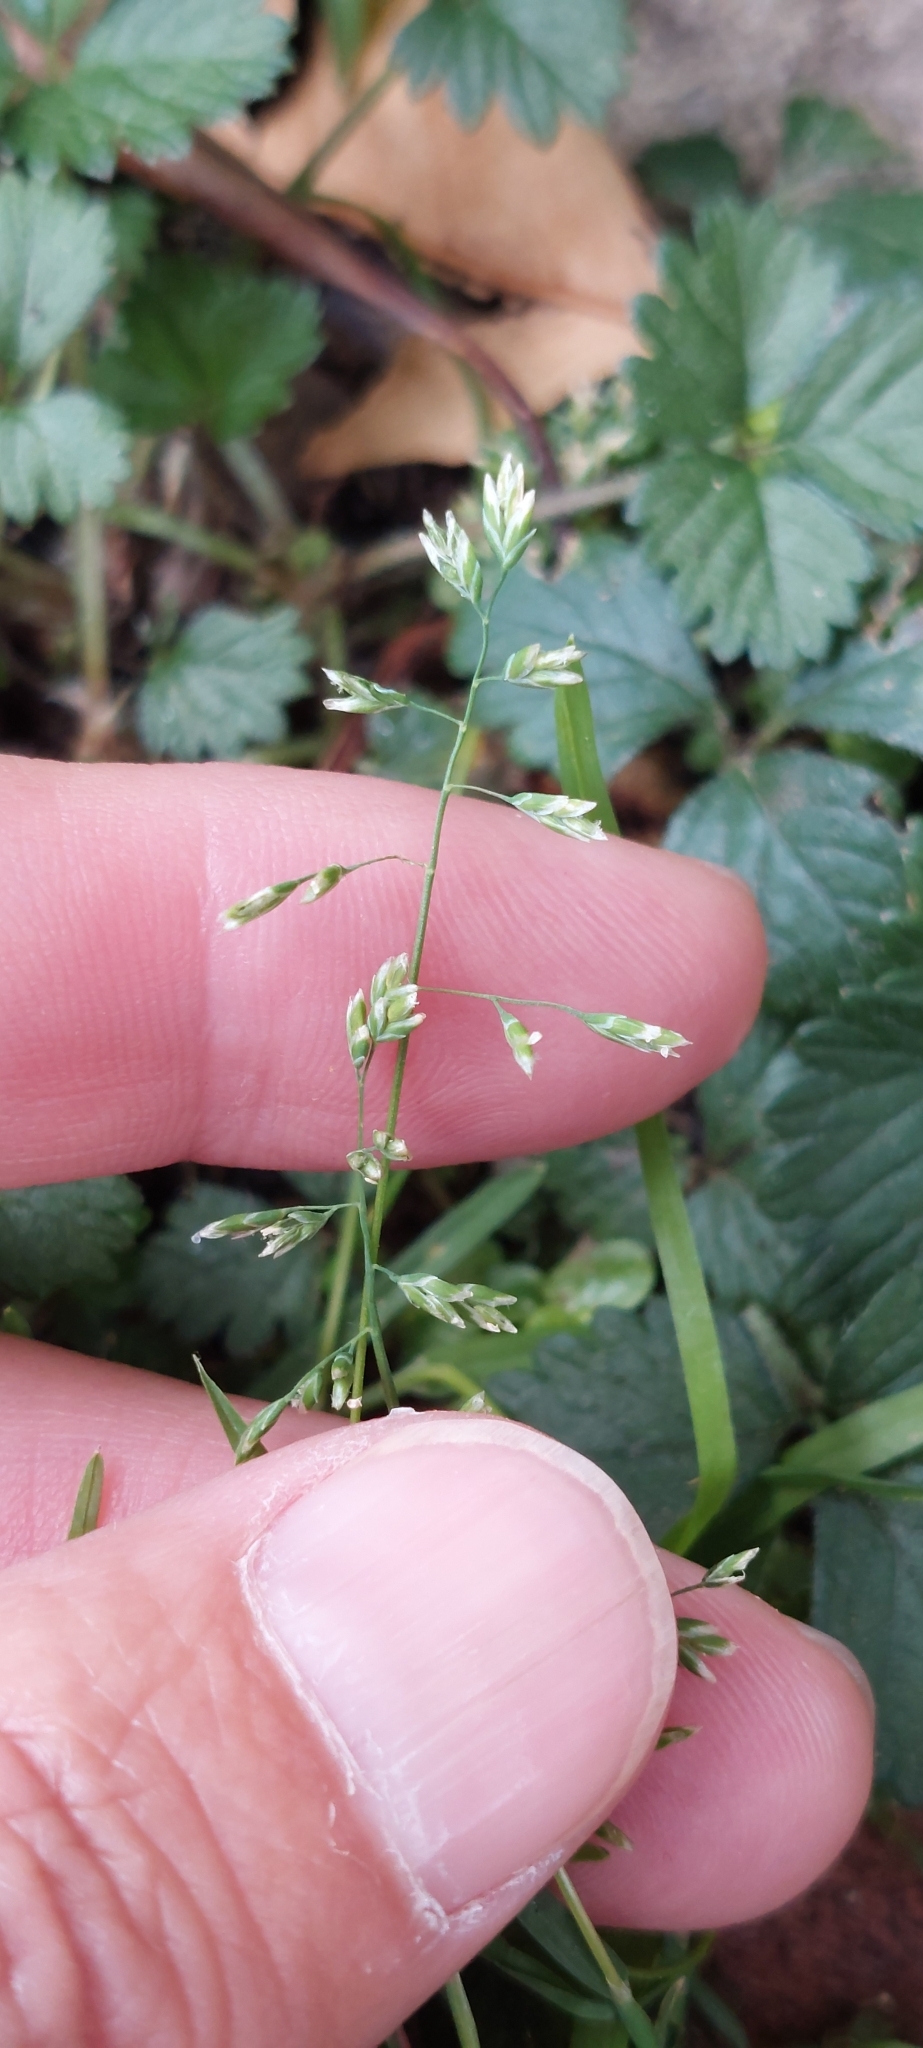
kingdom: Plantae
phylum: Tracheophyta
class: Liliopsida
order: Poales
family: Poaceae
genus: Poa
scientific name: Poa annua
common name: Annual bluegrass
